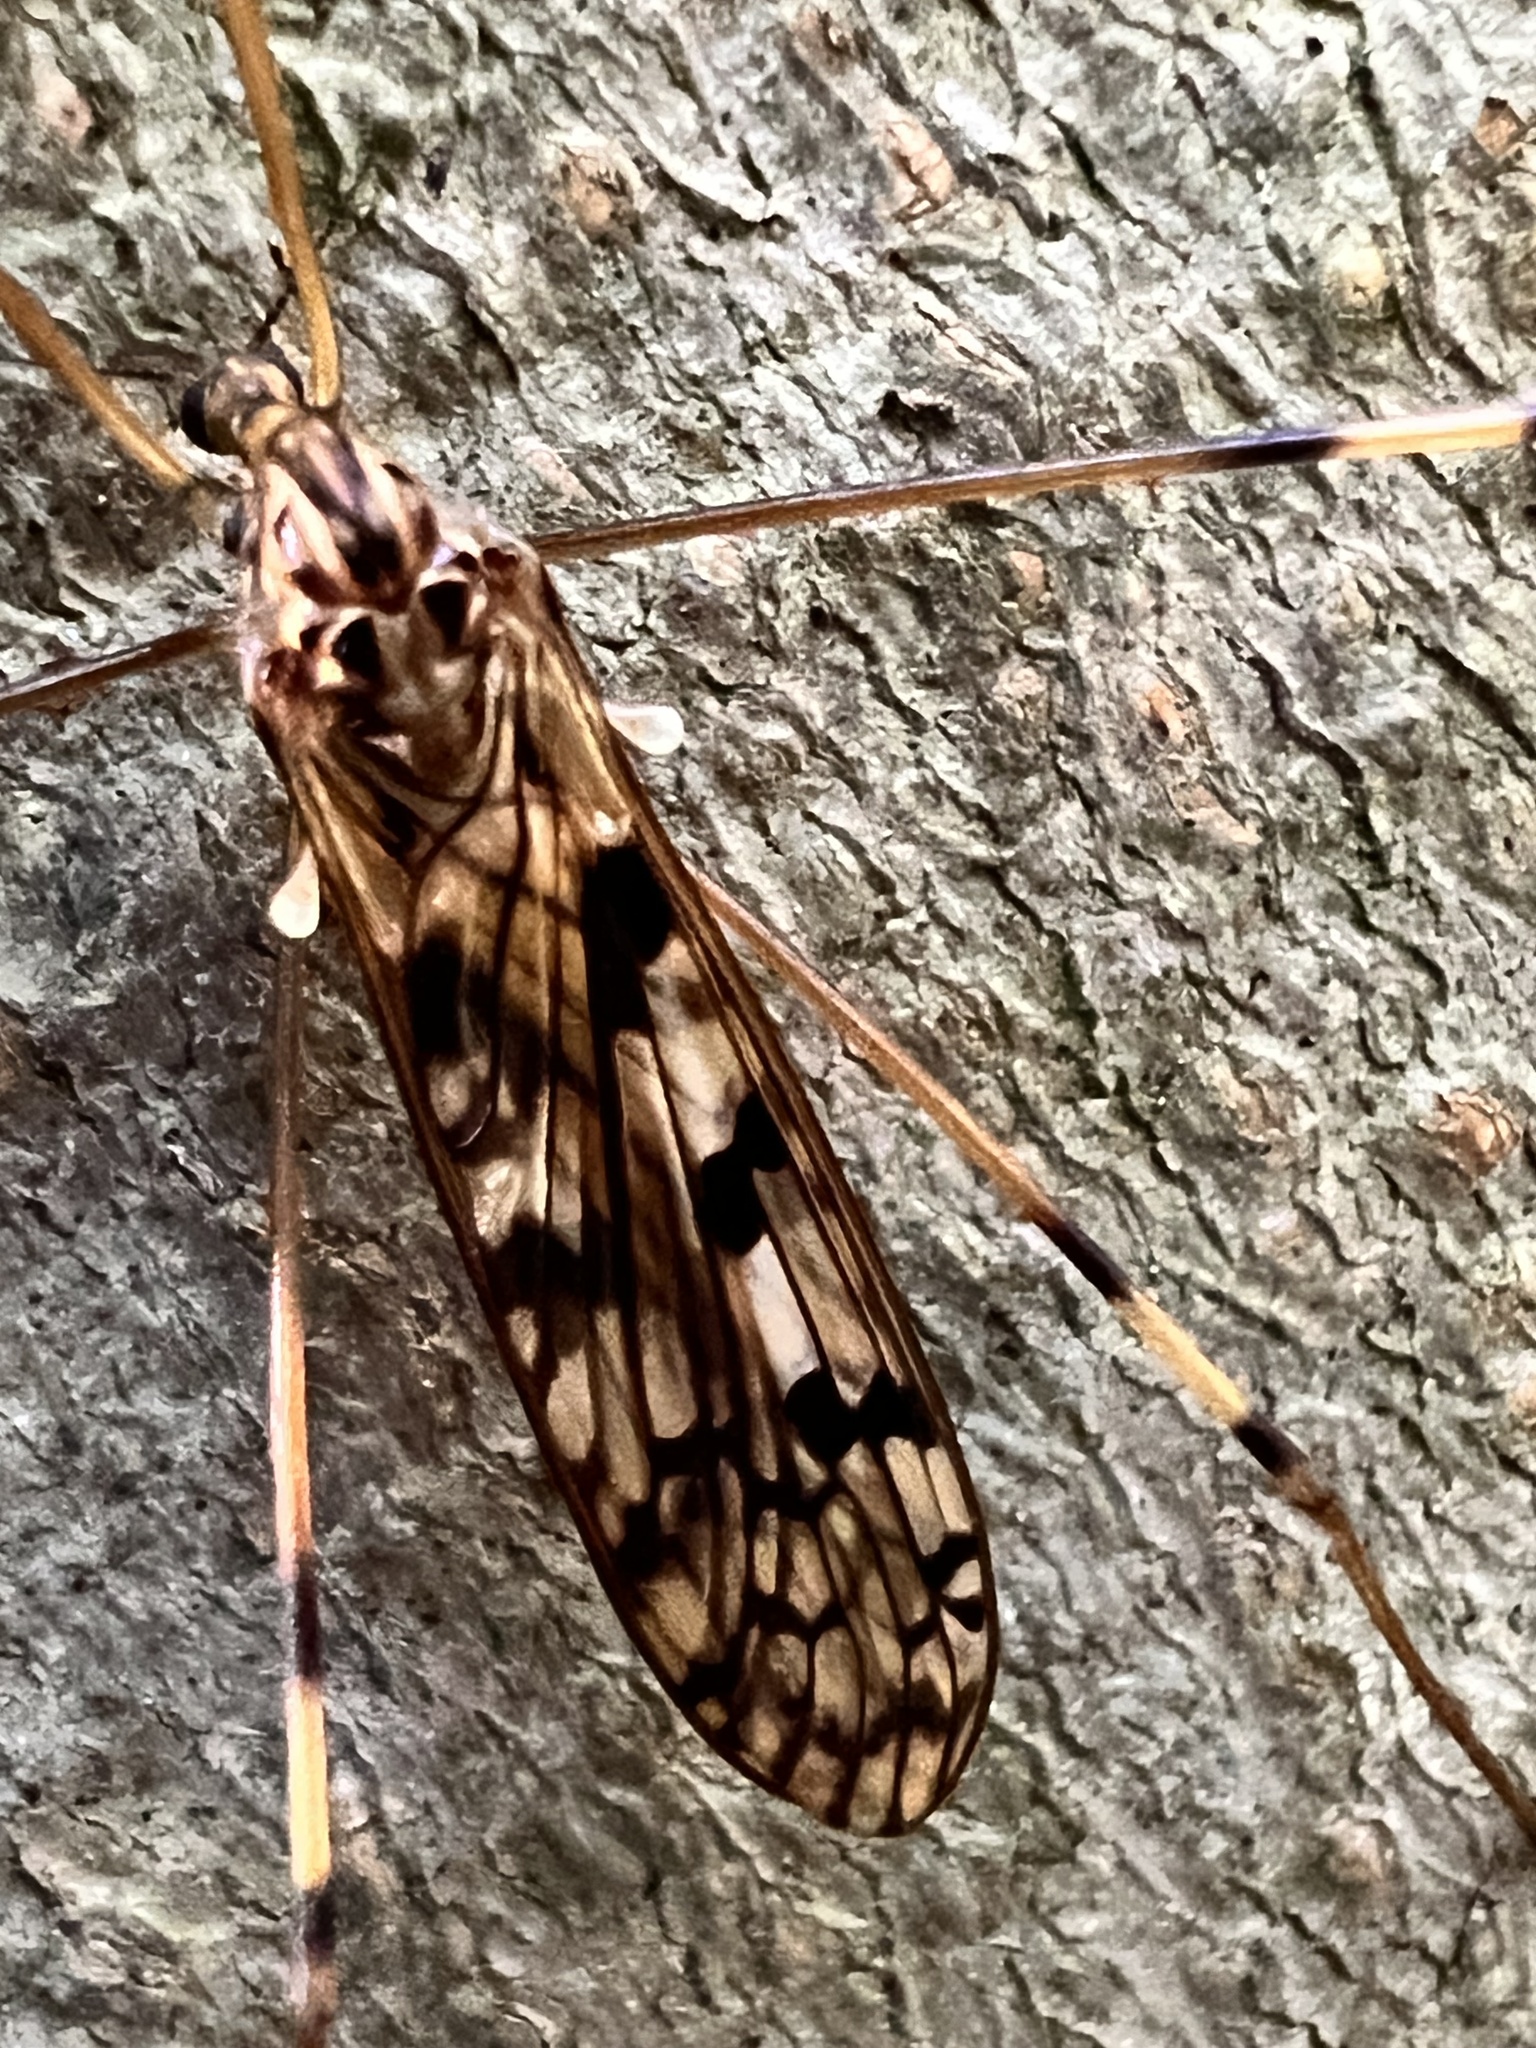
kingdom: Animalia
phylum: Arthropoda
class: Insecta
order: Diptera
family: Limoniidae
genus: Limonia
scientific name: Limonia cinctipes
